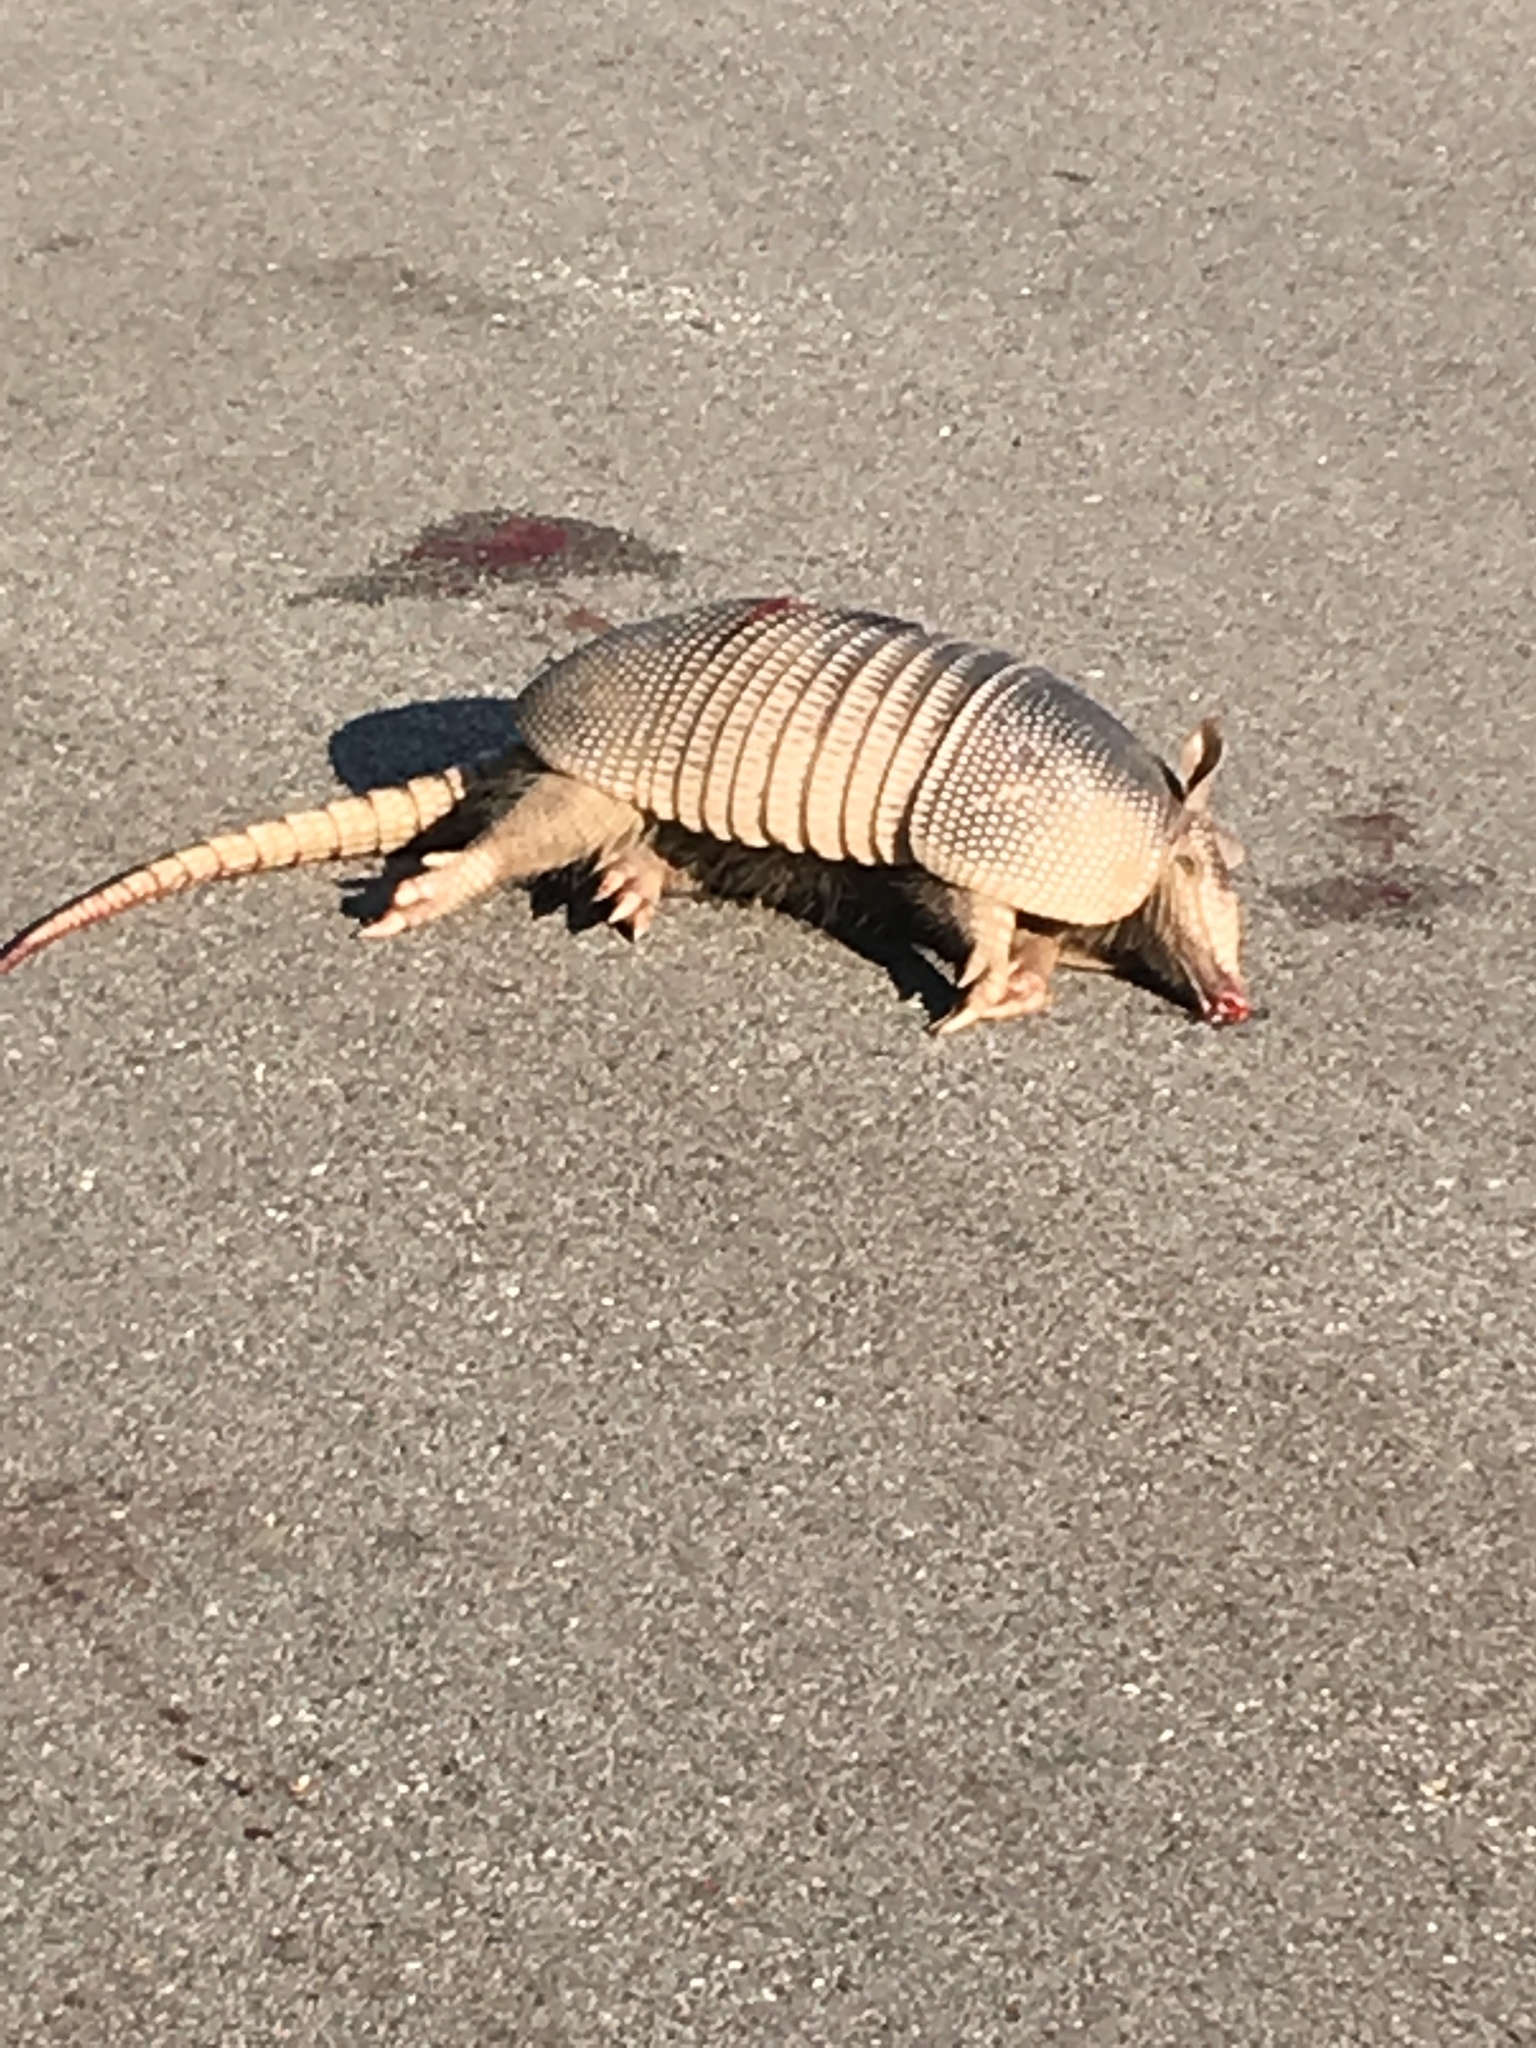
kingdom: Animalia
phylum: Chordata
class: Mammalia
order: Cingulata
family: Dasypodidae
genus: Dasypus
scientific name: Dasypus novemcinctus
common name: Nine-banded armadillo
